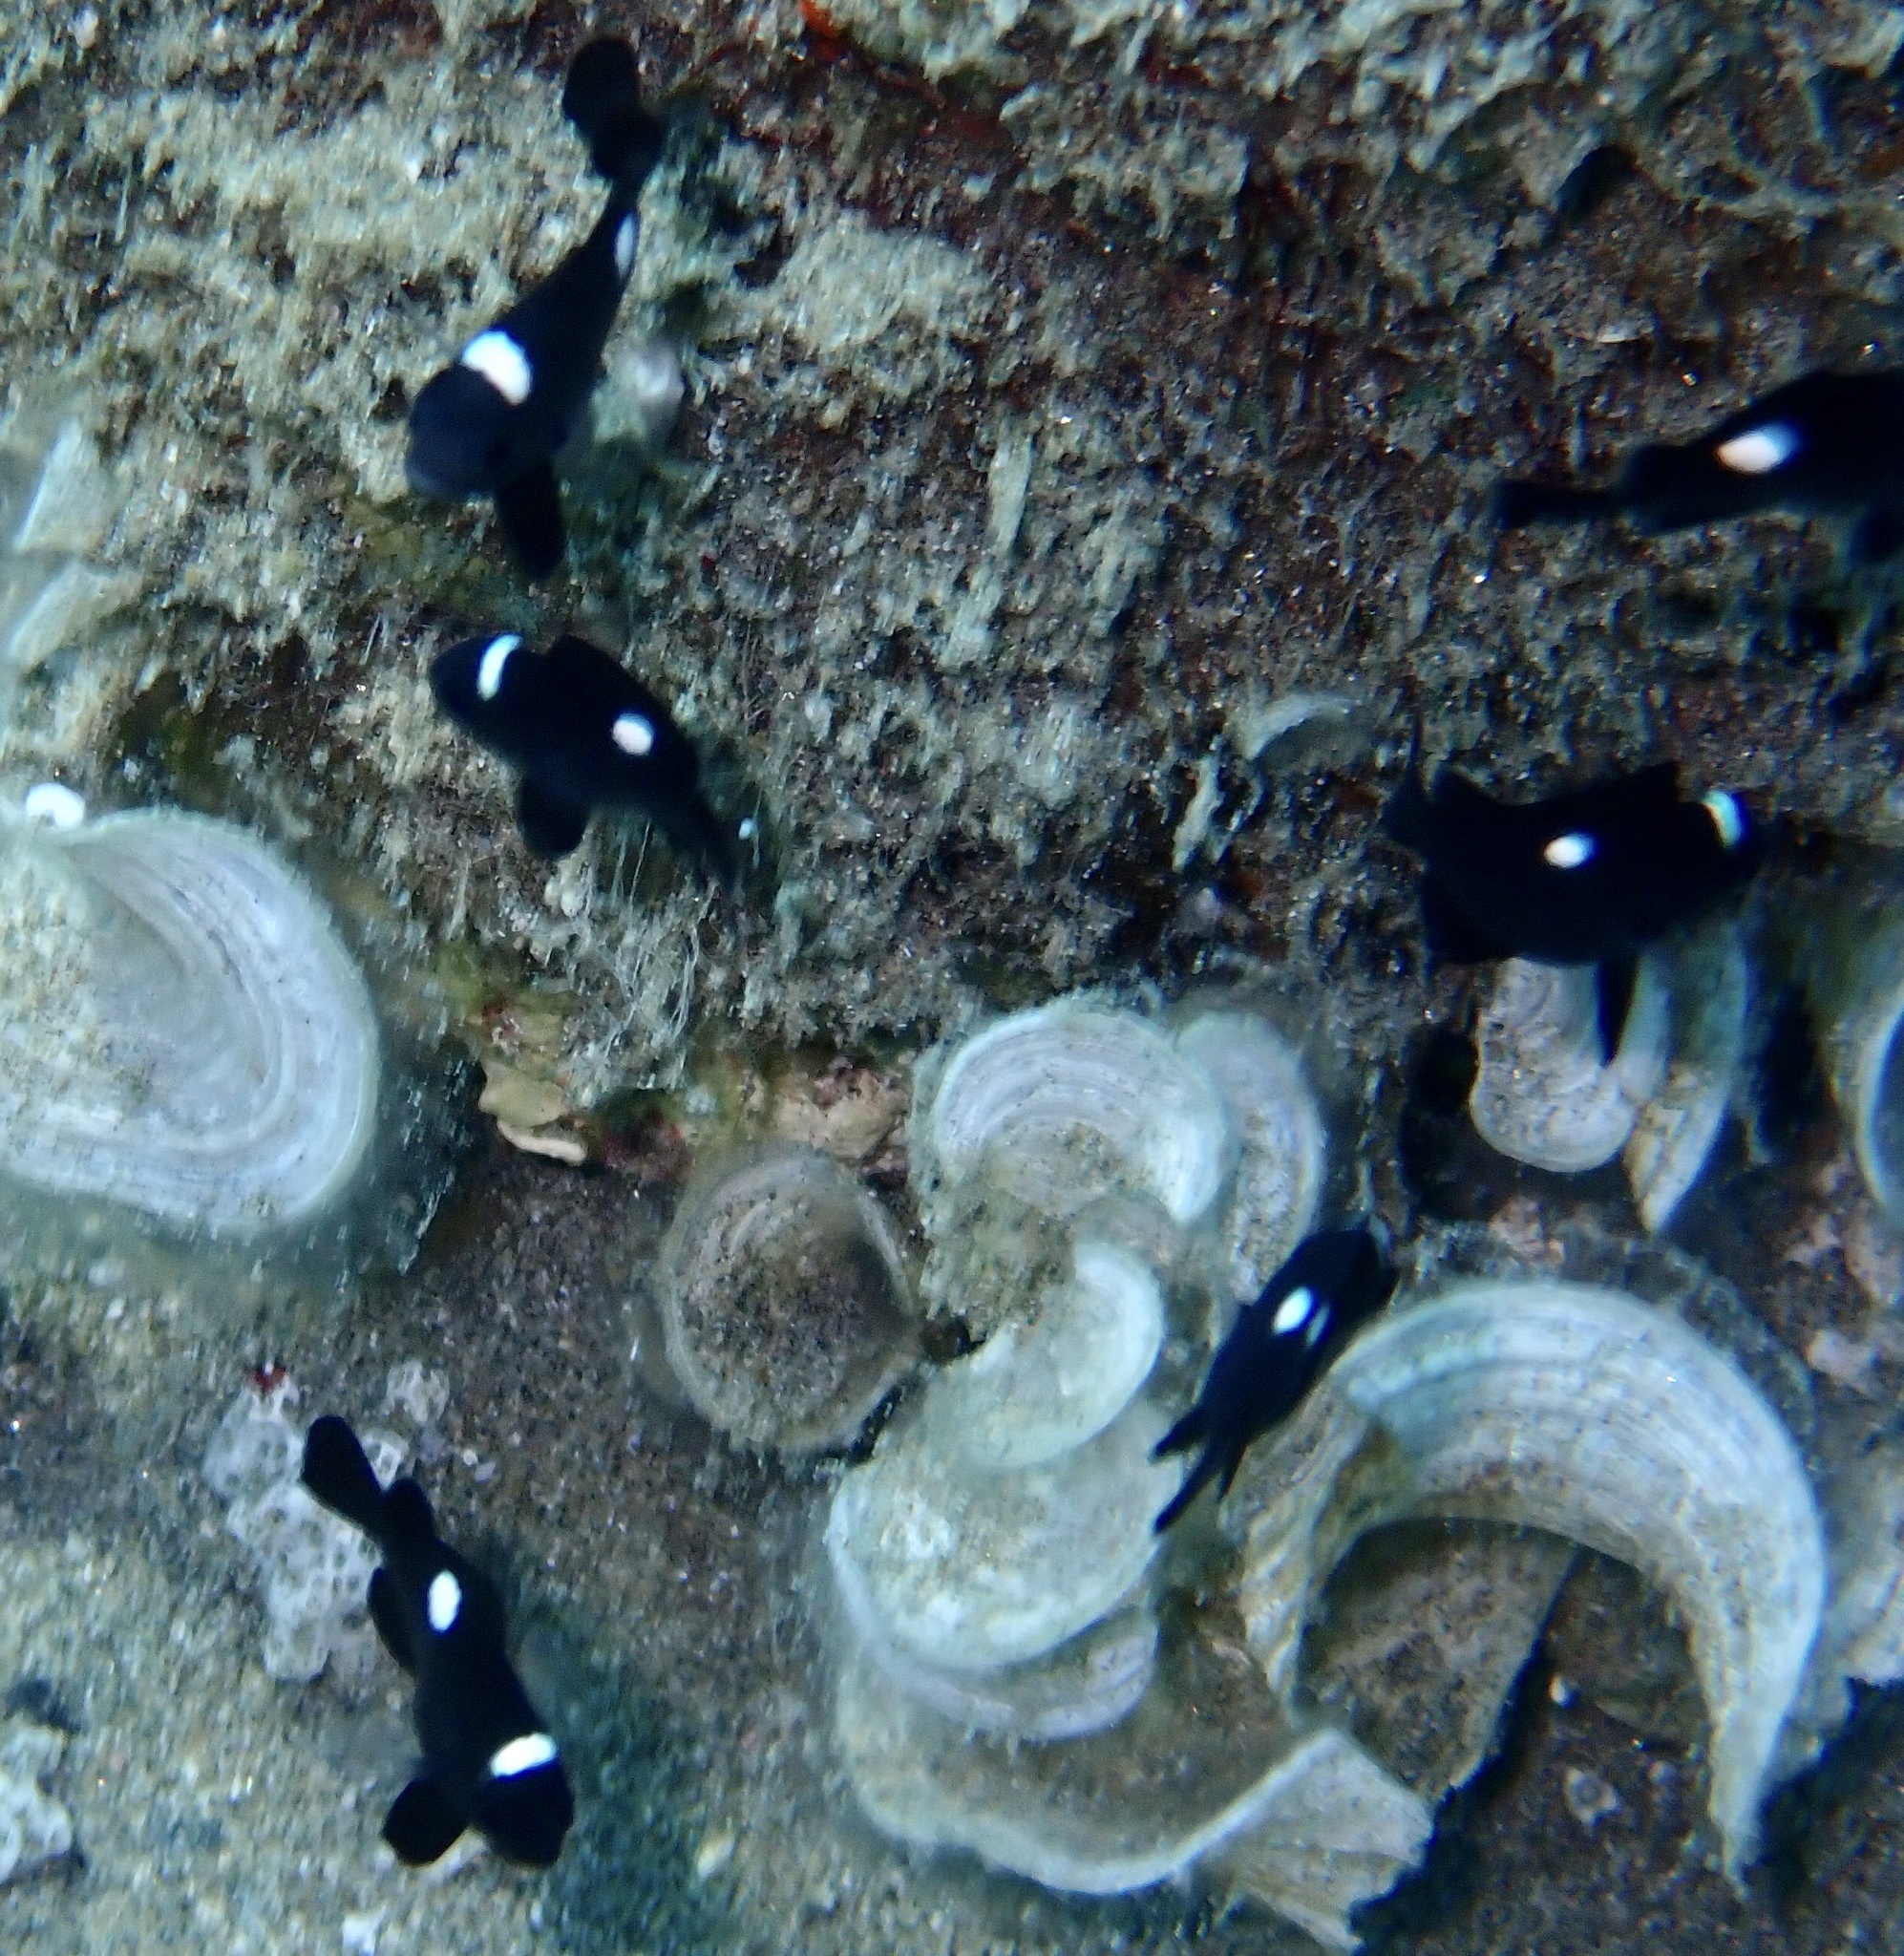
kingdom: Animalia
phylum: Chordata
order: Perciformes
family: Pomacentridae
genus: Dascyllus
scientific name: Dascyllus trimaculatus
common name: Threespot dascyllus
